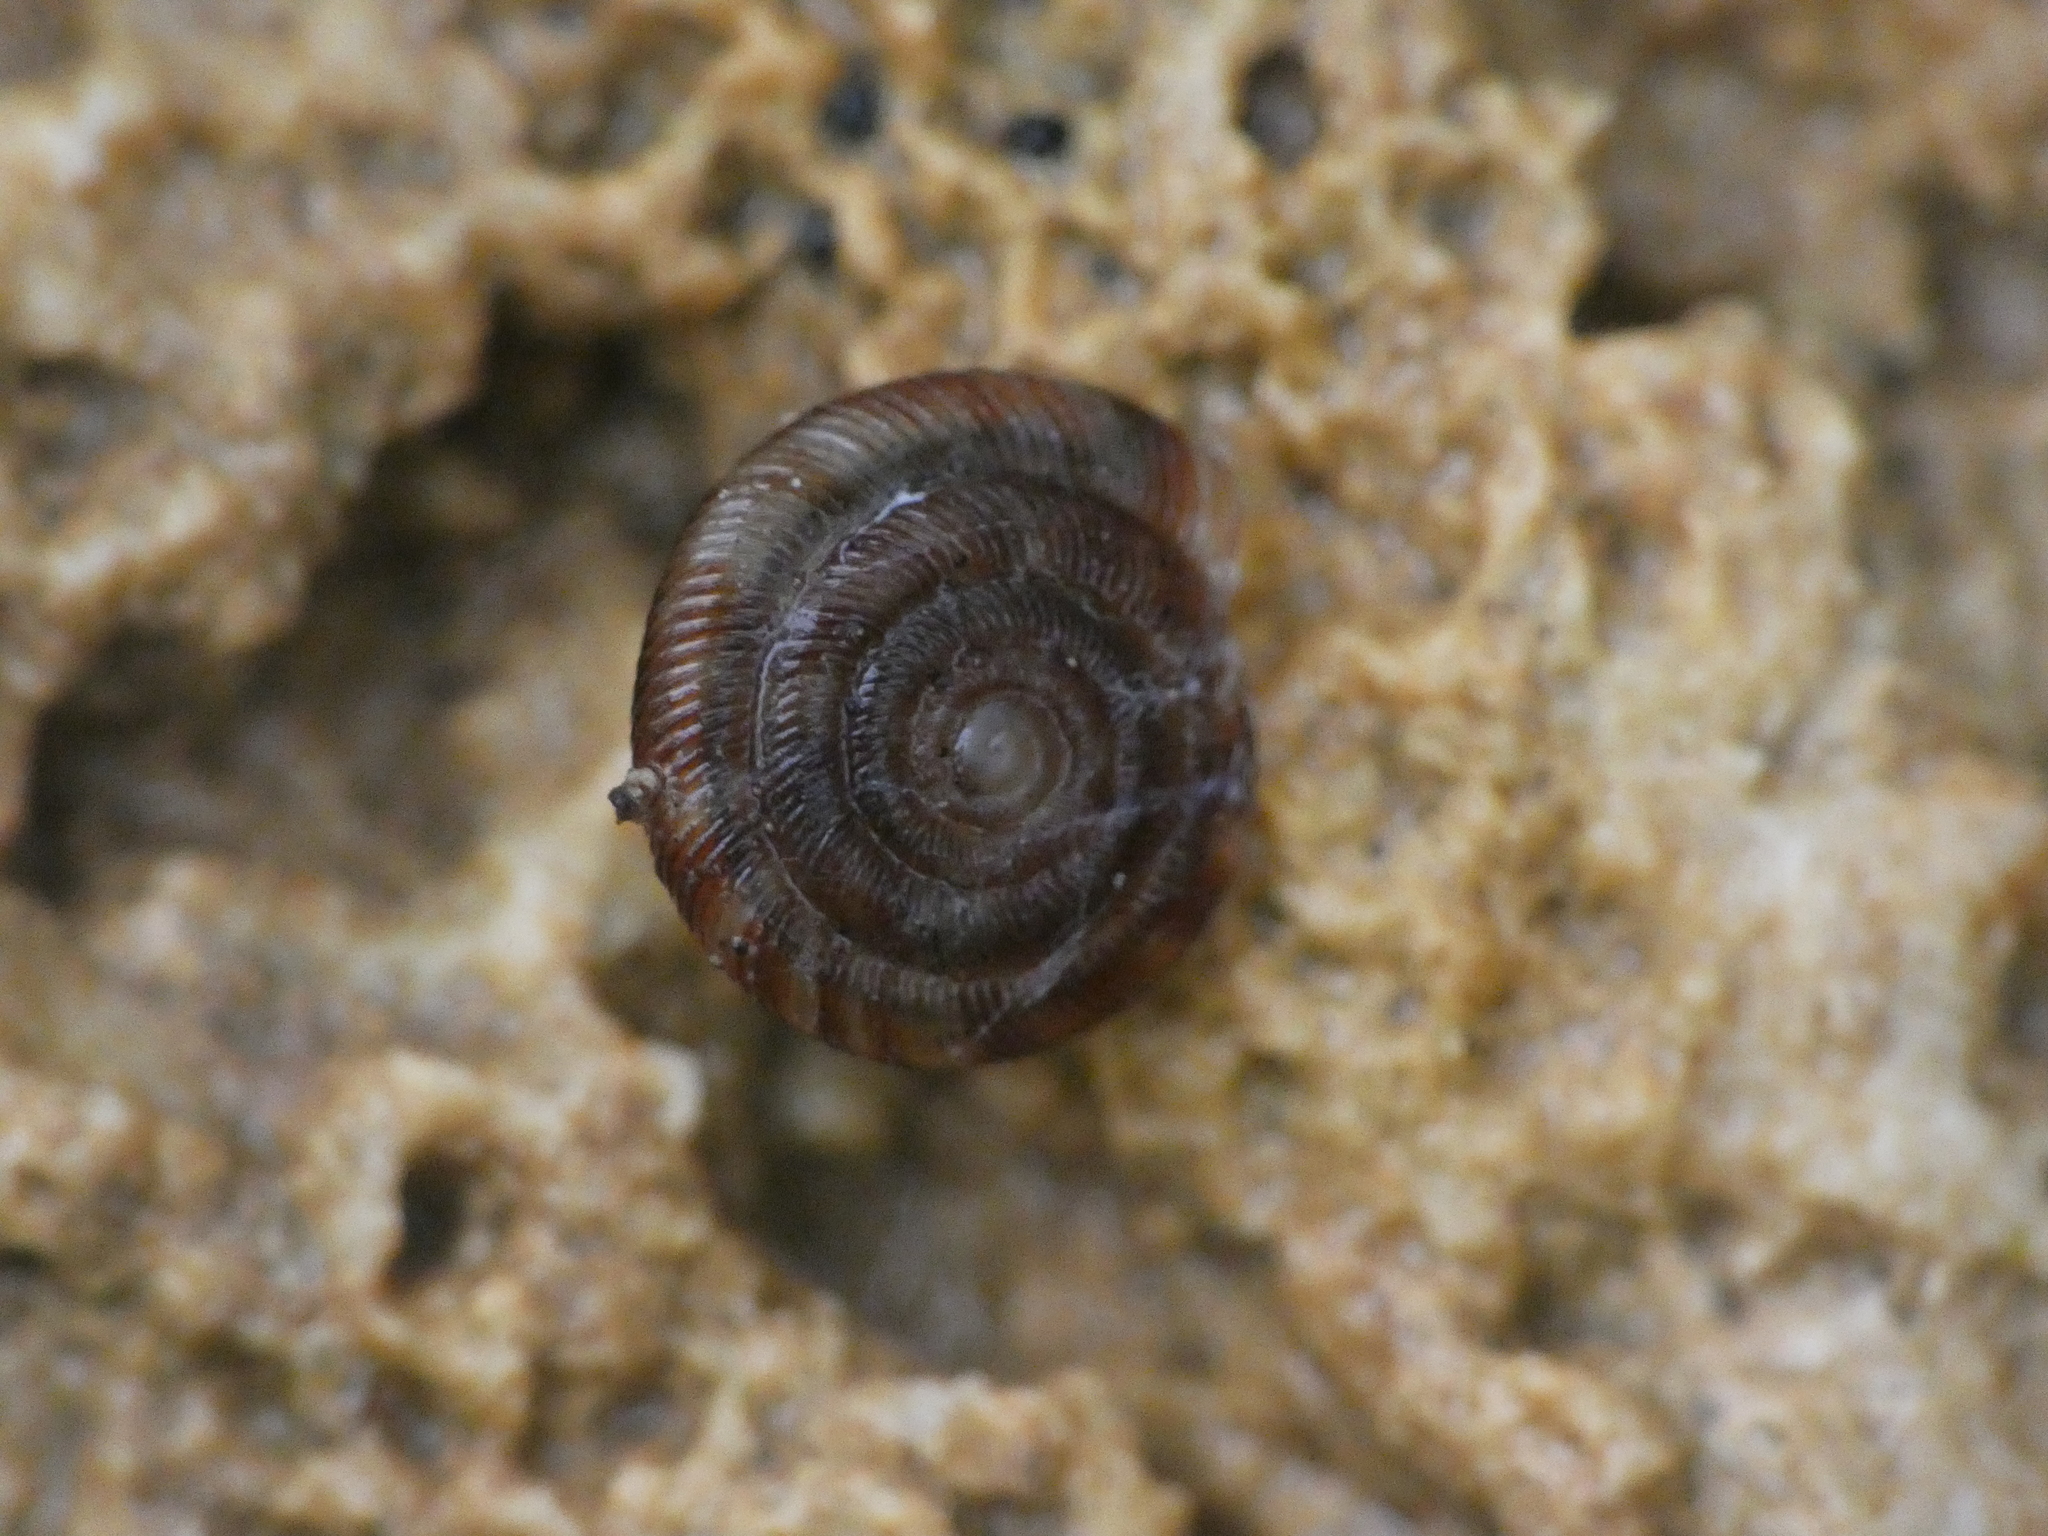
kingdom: Animalia
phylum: Mollusca
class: Gastropoda
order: Stylommatophora
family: Discidae
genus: Discus
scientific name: Discus rotundatus
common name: Rounded snail
